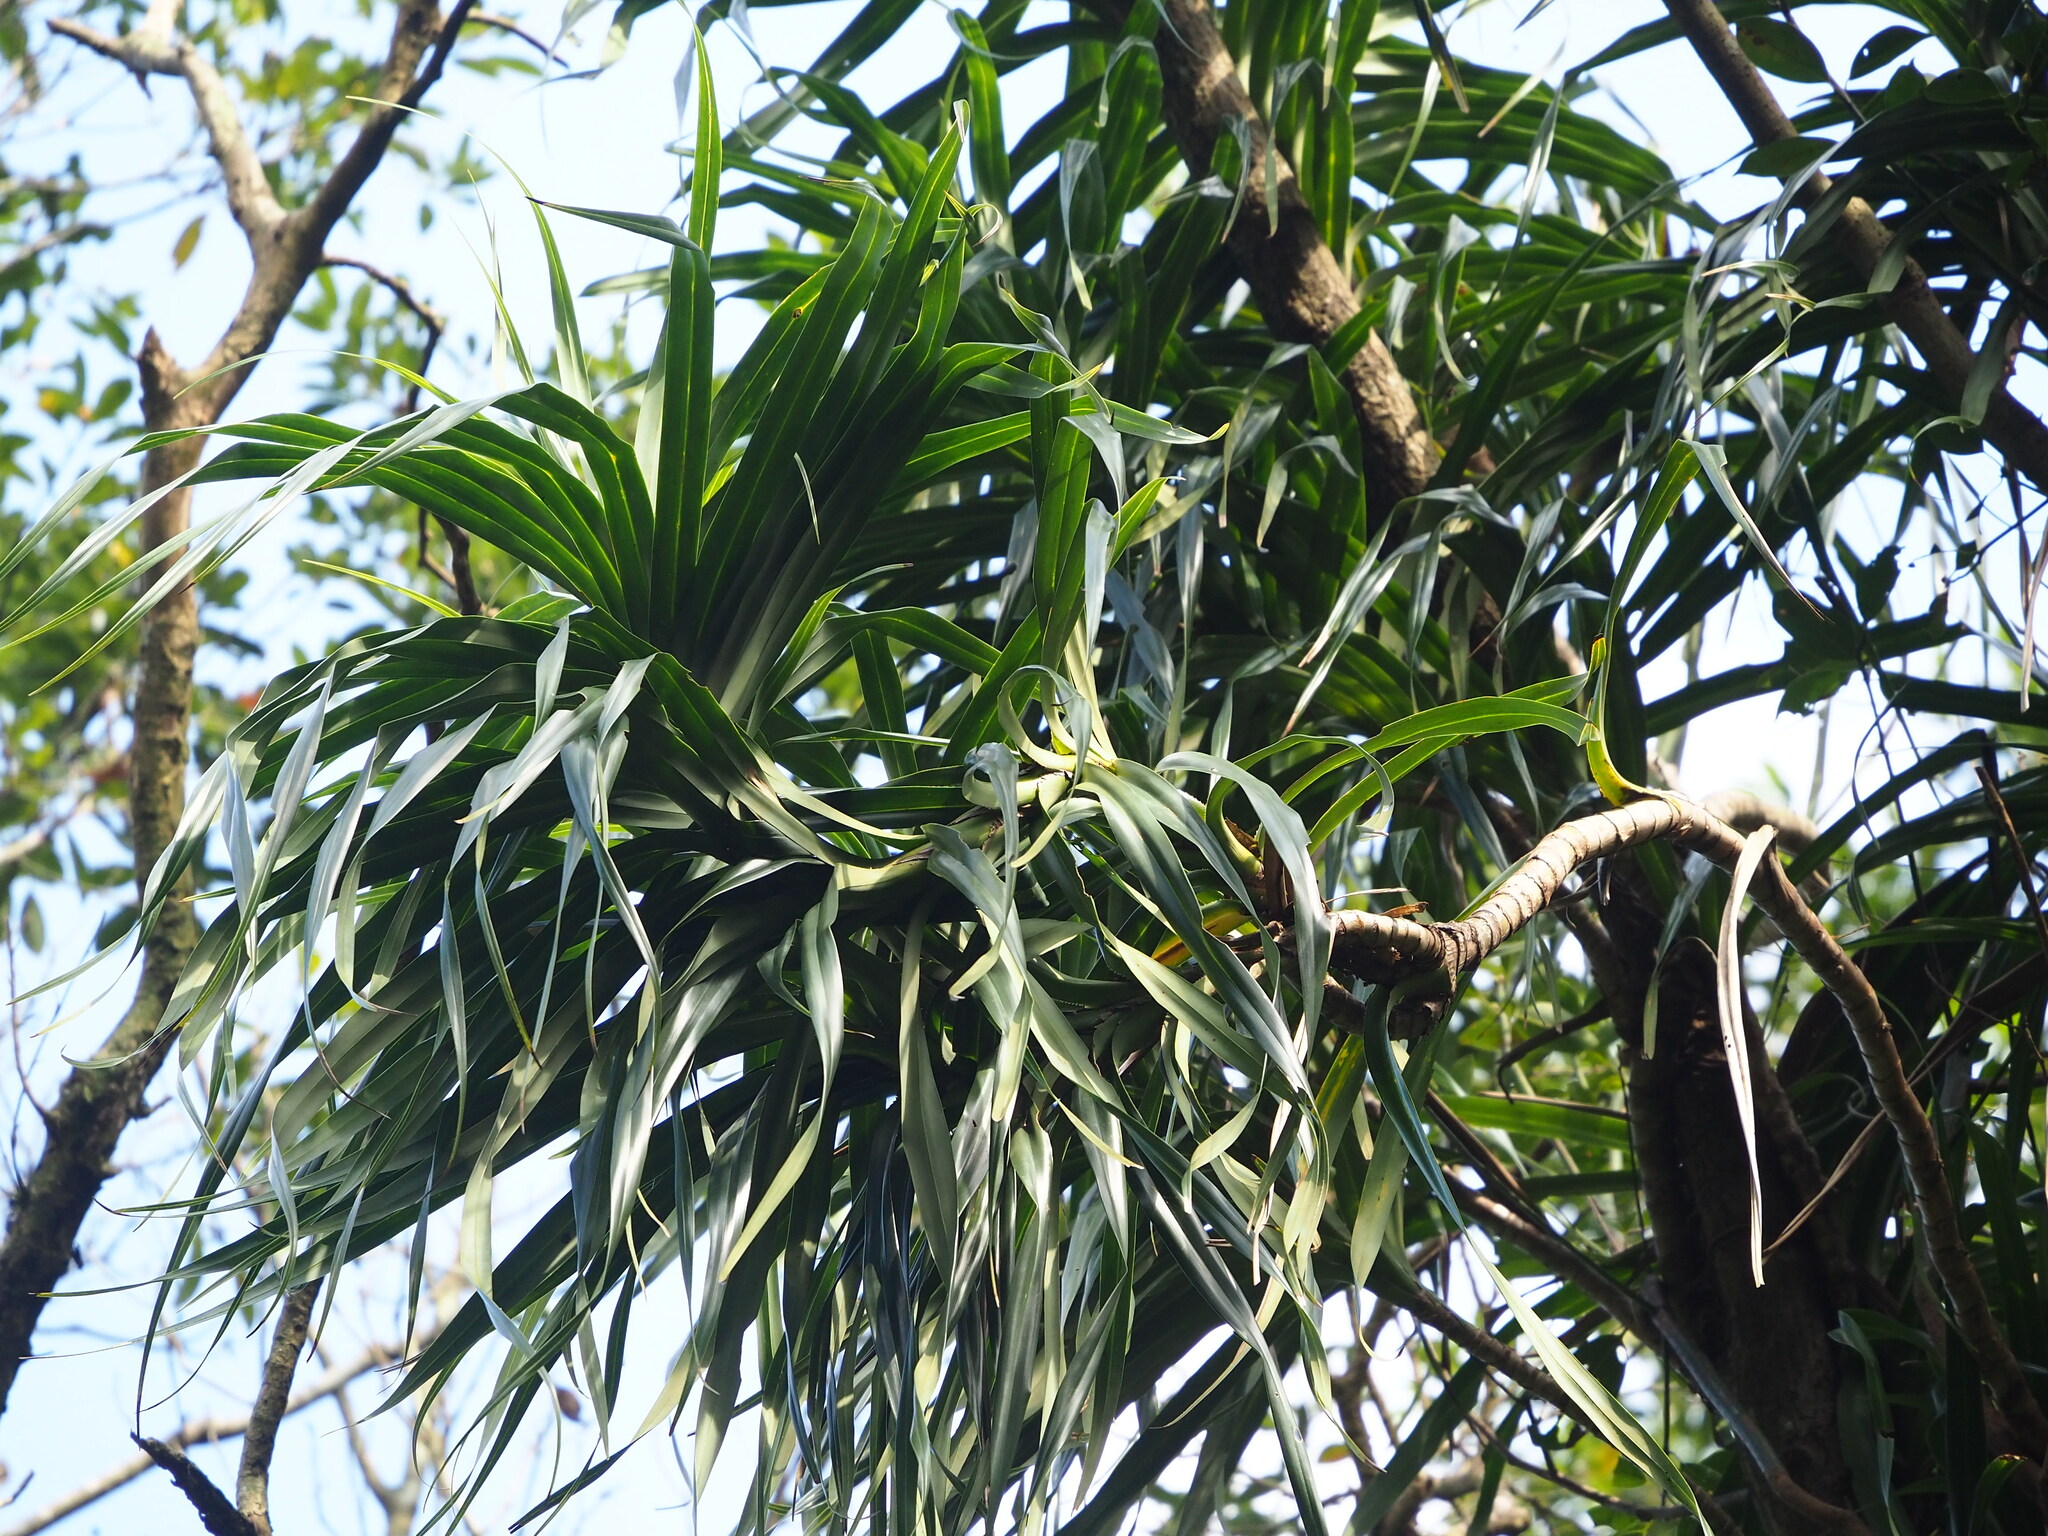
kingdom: Plantae
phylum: Tracheophyta
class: Liliopsida
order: Pandanales
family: Pandanaceae
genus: Freycinetia
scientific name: Freycinetia formosana
